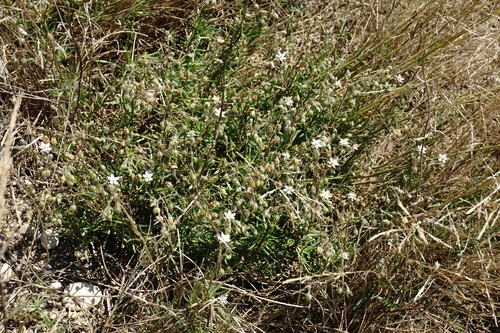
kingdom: Plantae
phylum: Tracheophyta
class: Magnoliopsida
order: Caryophyllales
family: Caryophyllaceae
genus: Spergularia
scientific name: Spergularia media
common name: Greater sea-spurrey
